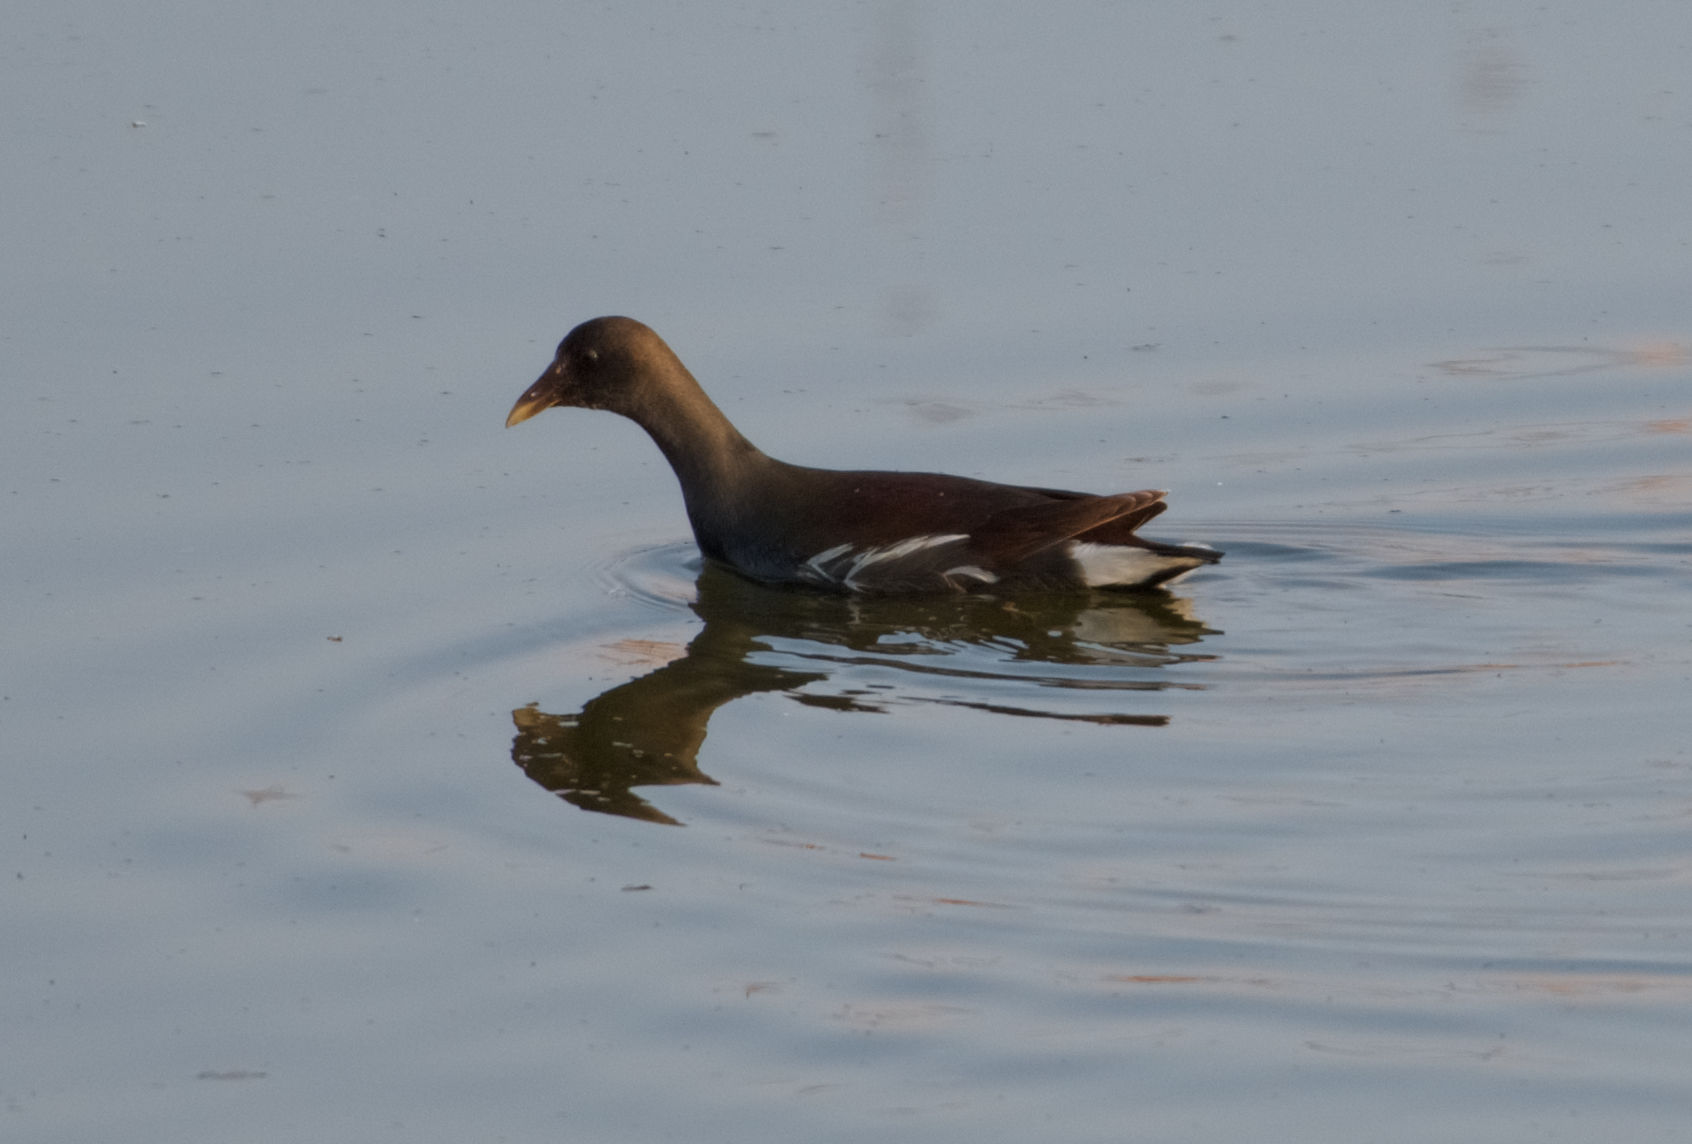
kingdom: Animalia
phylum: Chordata
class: Aves
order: Gruiformes
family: Rallidae
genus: Gallinula
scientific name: Gallinula chloropus
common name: Common moorhen
